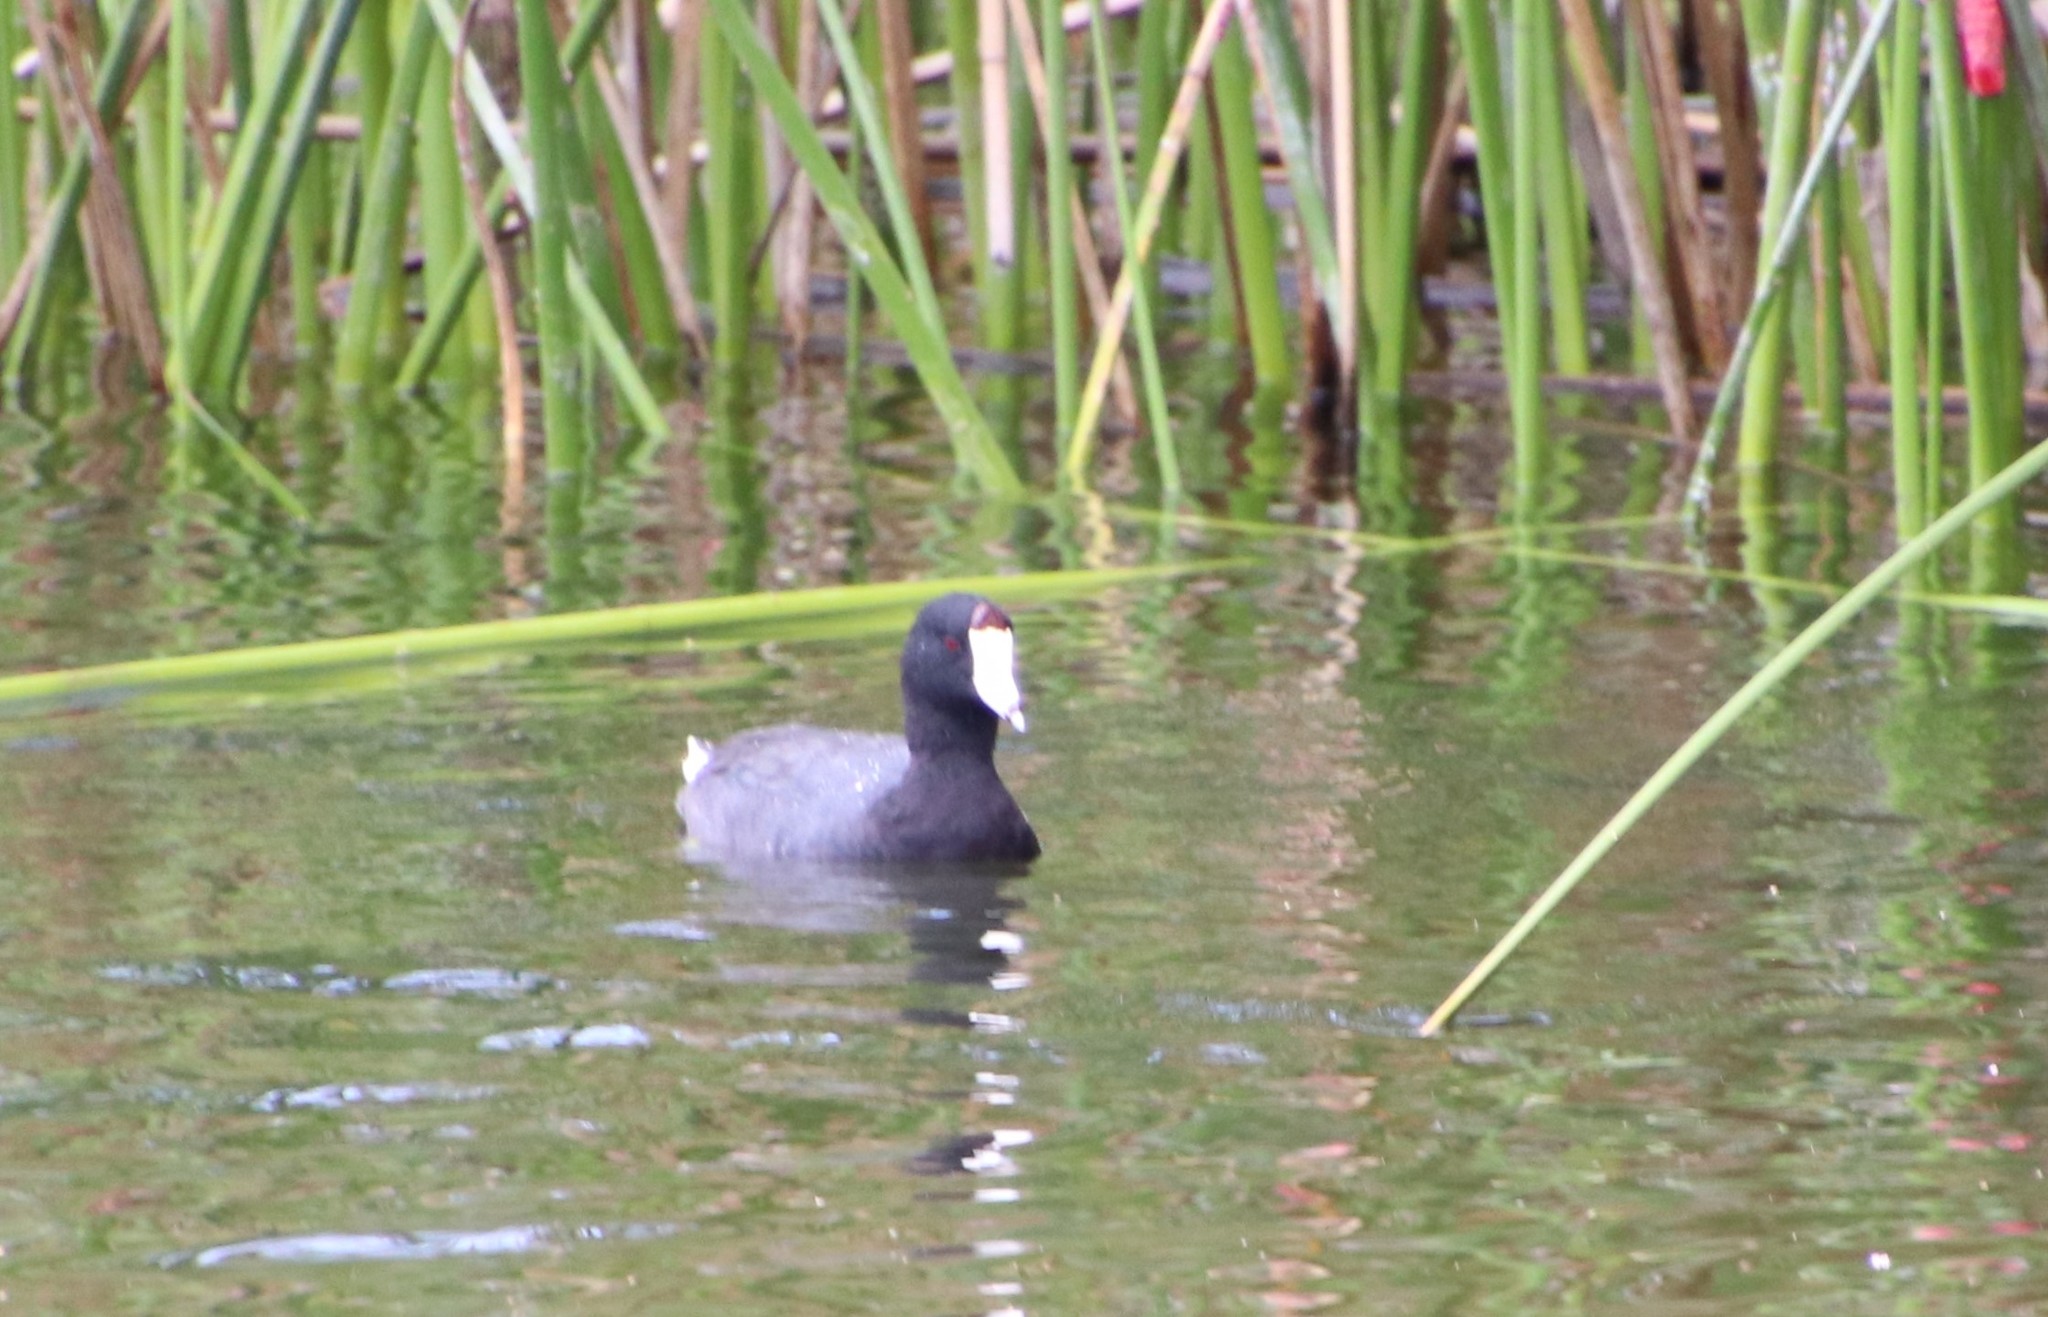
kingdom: Animalia
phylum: Chordata
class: Aves
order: Gruiformes
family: Rallidae
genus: Fulica
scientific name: Fulica americana
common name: American coot
